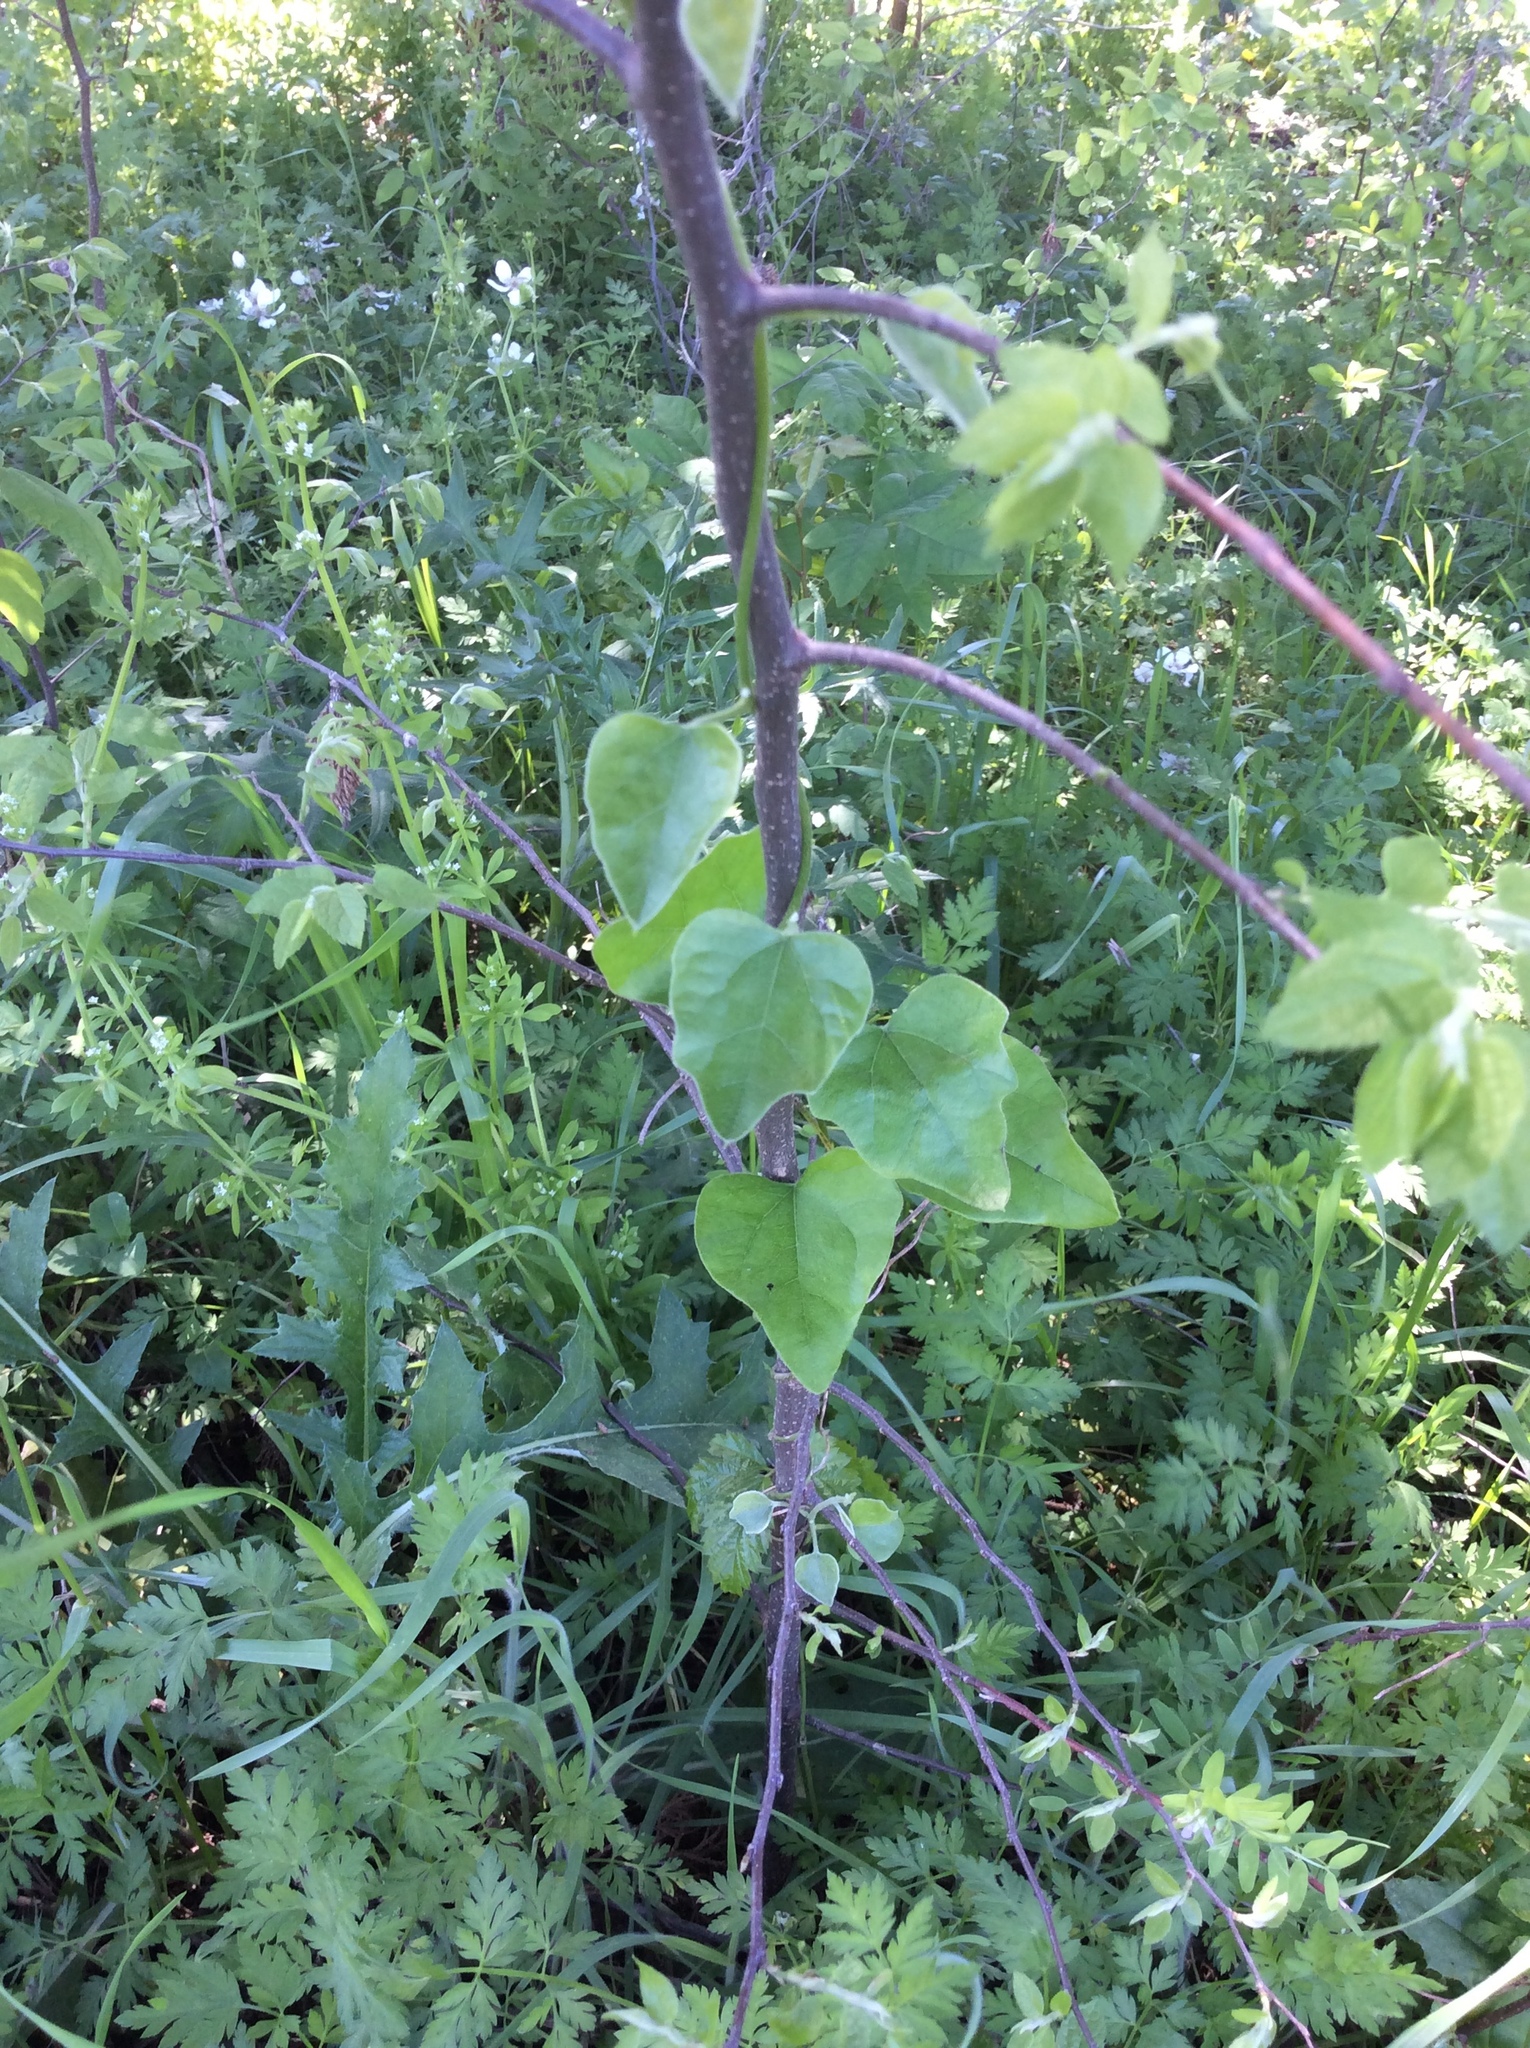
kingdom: Plantae
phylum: Tracheophyta
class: Magnoliopsida
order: Ranunculales
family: Menispermaceae
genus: Cocculus
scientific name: Cocculus carolinus
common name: Carolina moonseed
